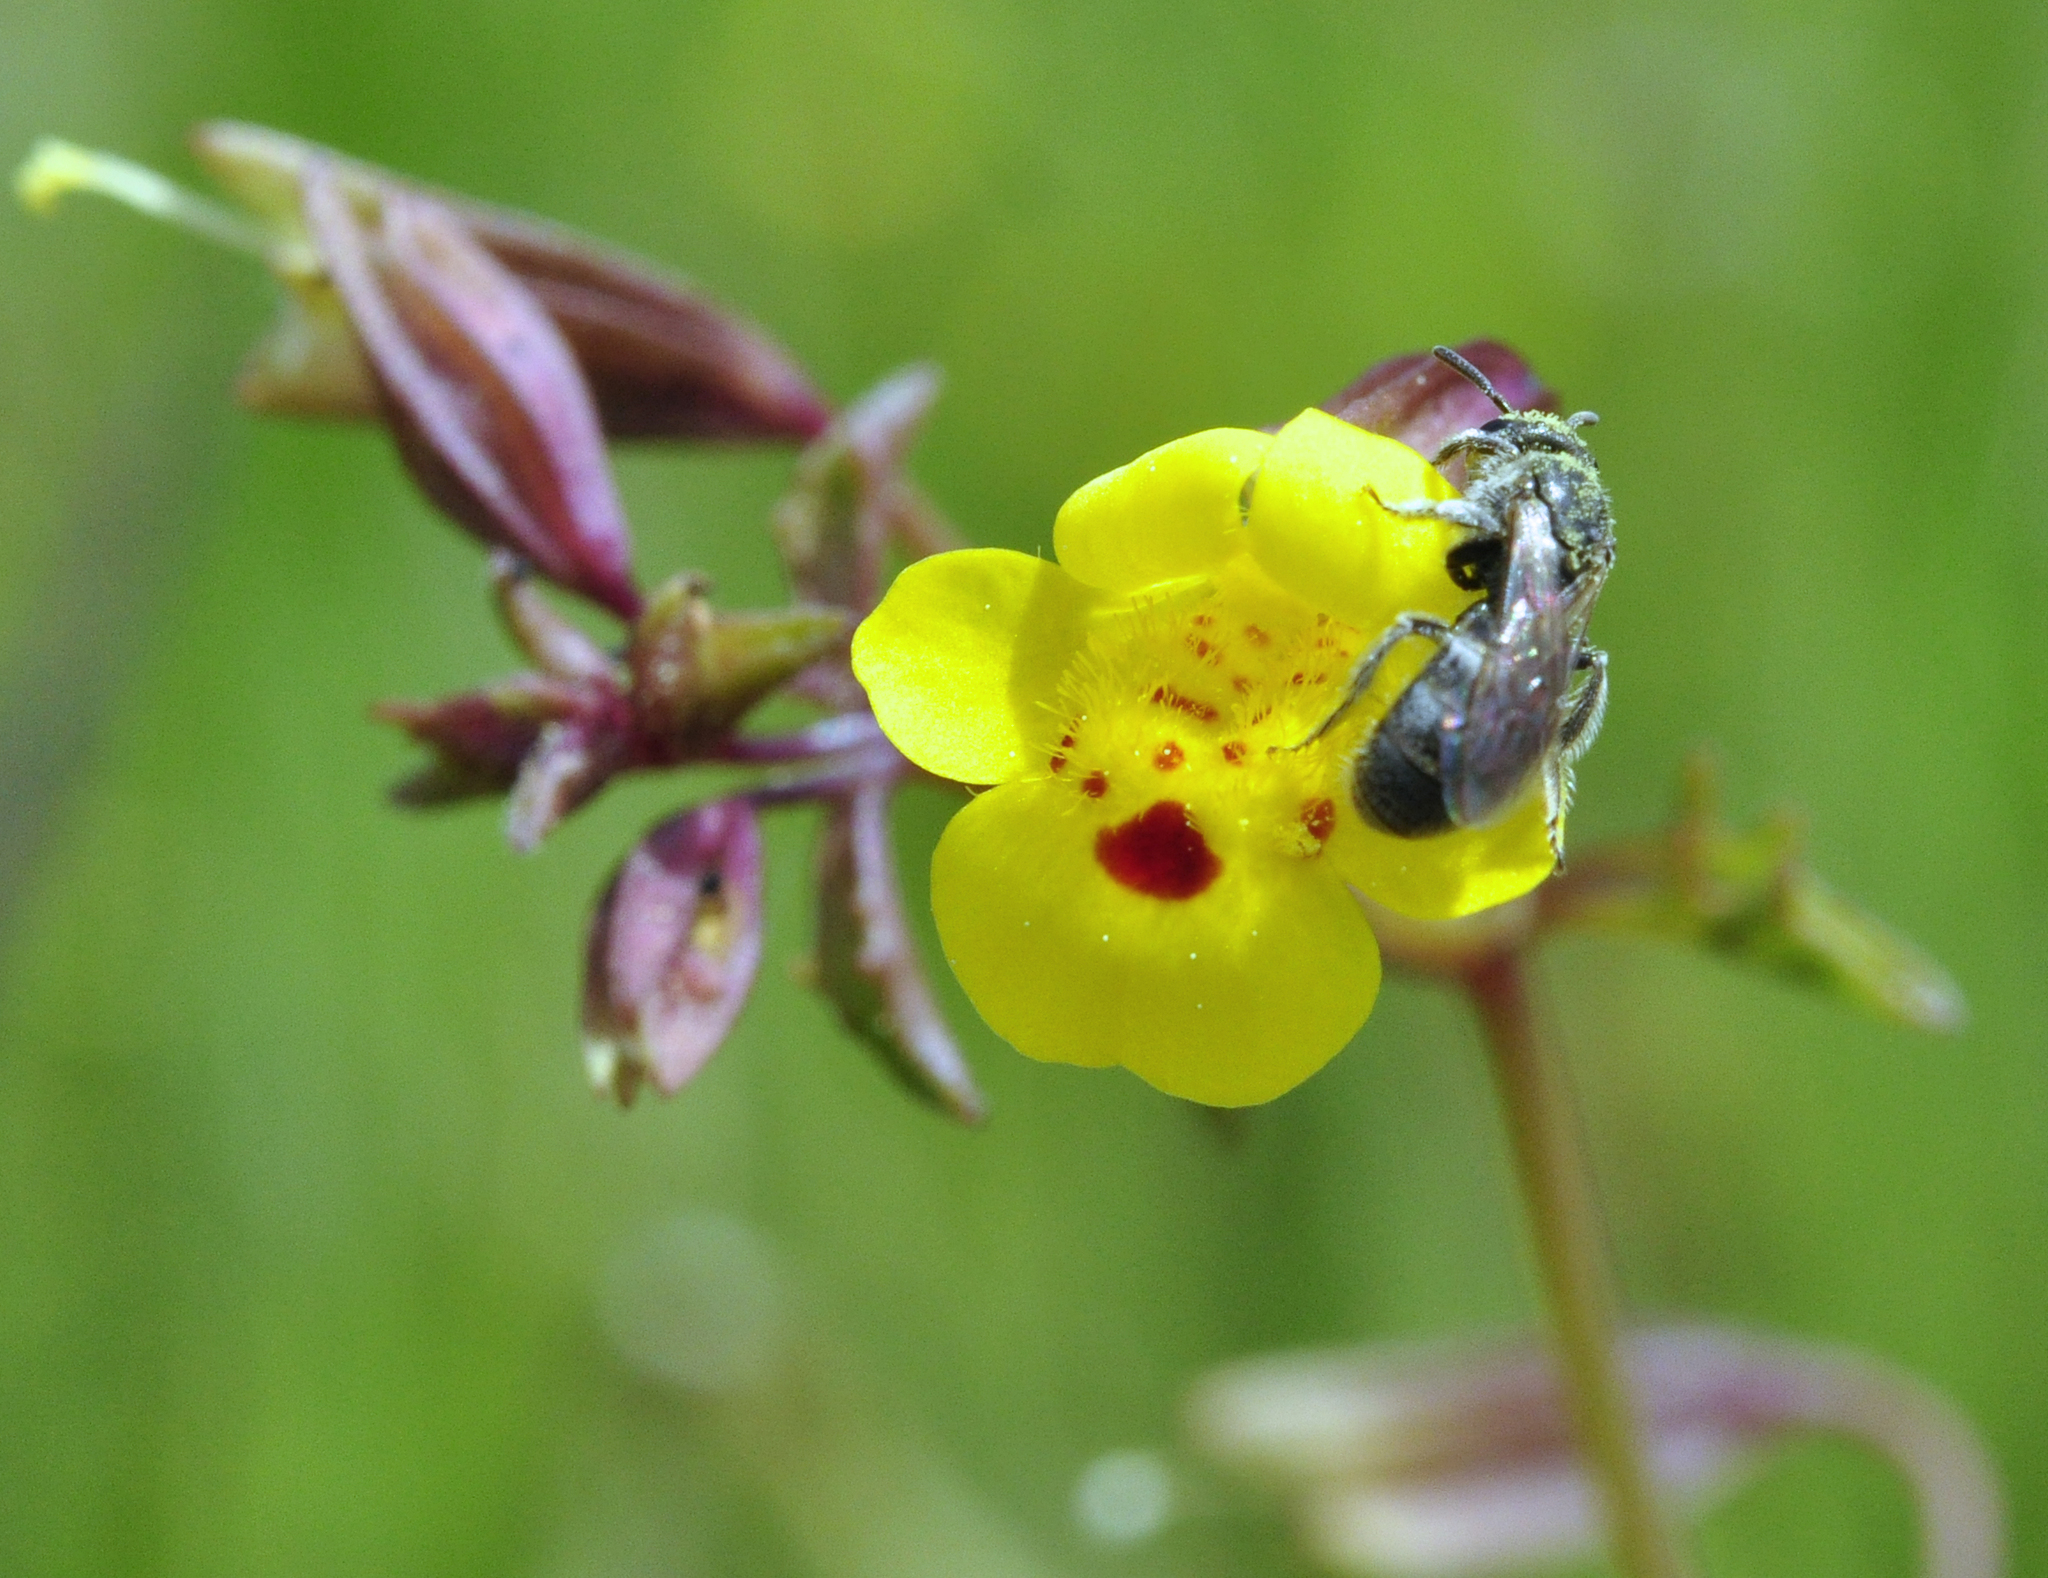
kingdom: Plantae
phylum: Tracheophyta
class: Magnoliopsida
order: Lamiales
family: Phrymaceae
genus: Erythranthe
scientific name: Erythranthe laciniata
